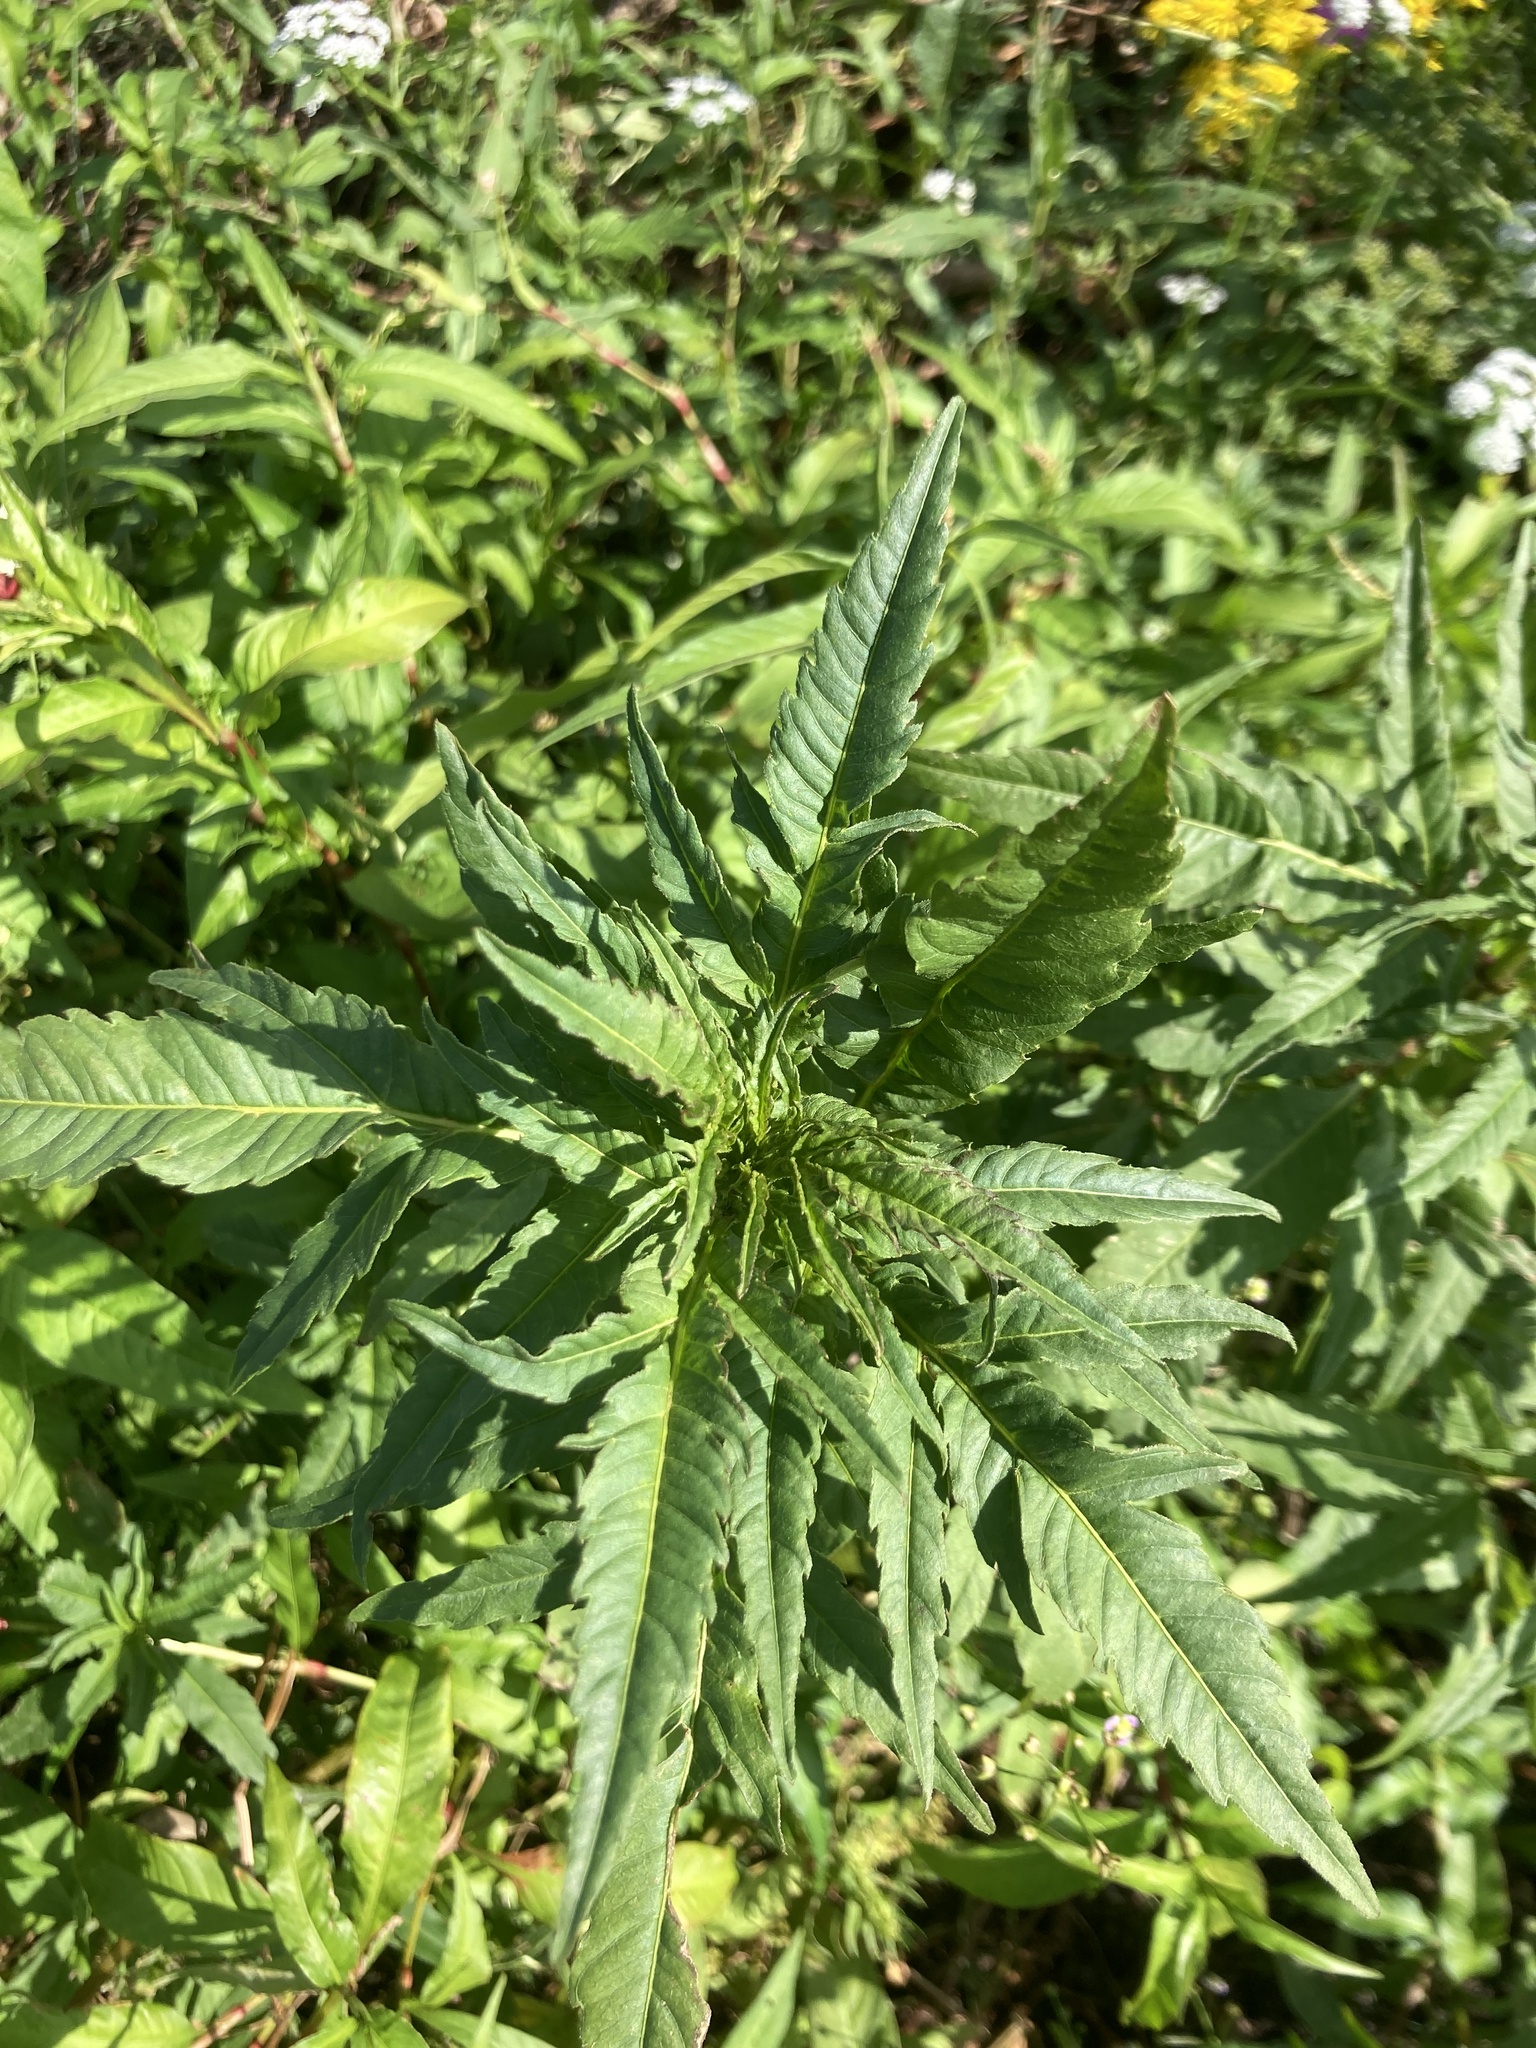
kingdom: Plantae
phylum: Tracheophyta
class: Magnoliopsida
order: Asterales
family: Asteraceae
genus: Bidens
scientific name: Bidens radiata
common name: Radiating bur-marigold
